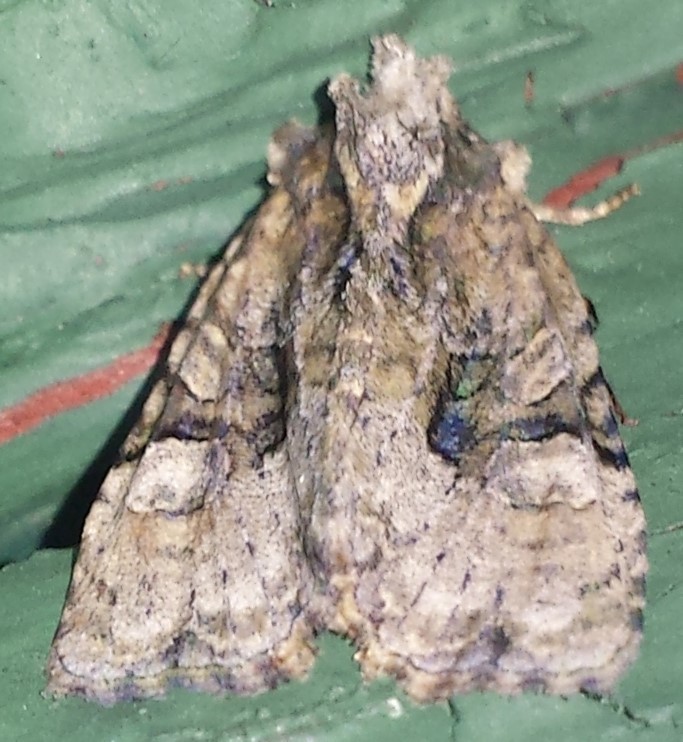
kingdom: Animalia
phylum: Arthropoda
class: Insecta
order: Lepidoptera
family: Noctuidae
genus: Oligia
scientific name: Oligia modica
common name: Black-banded brocade
